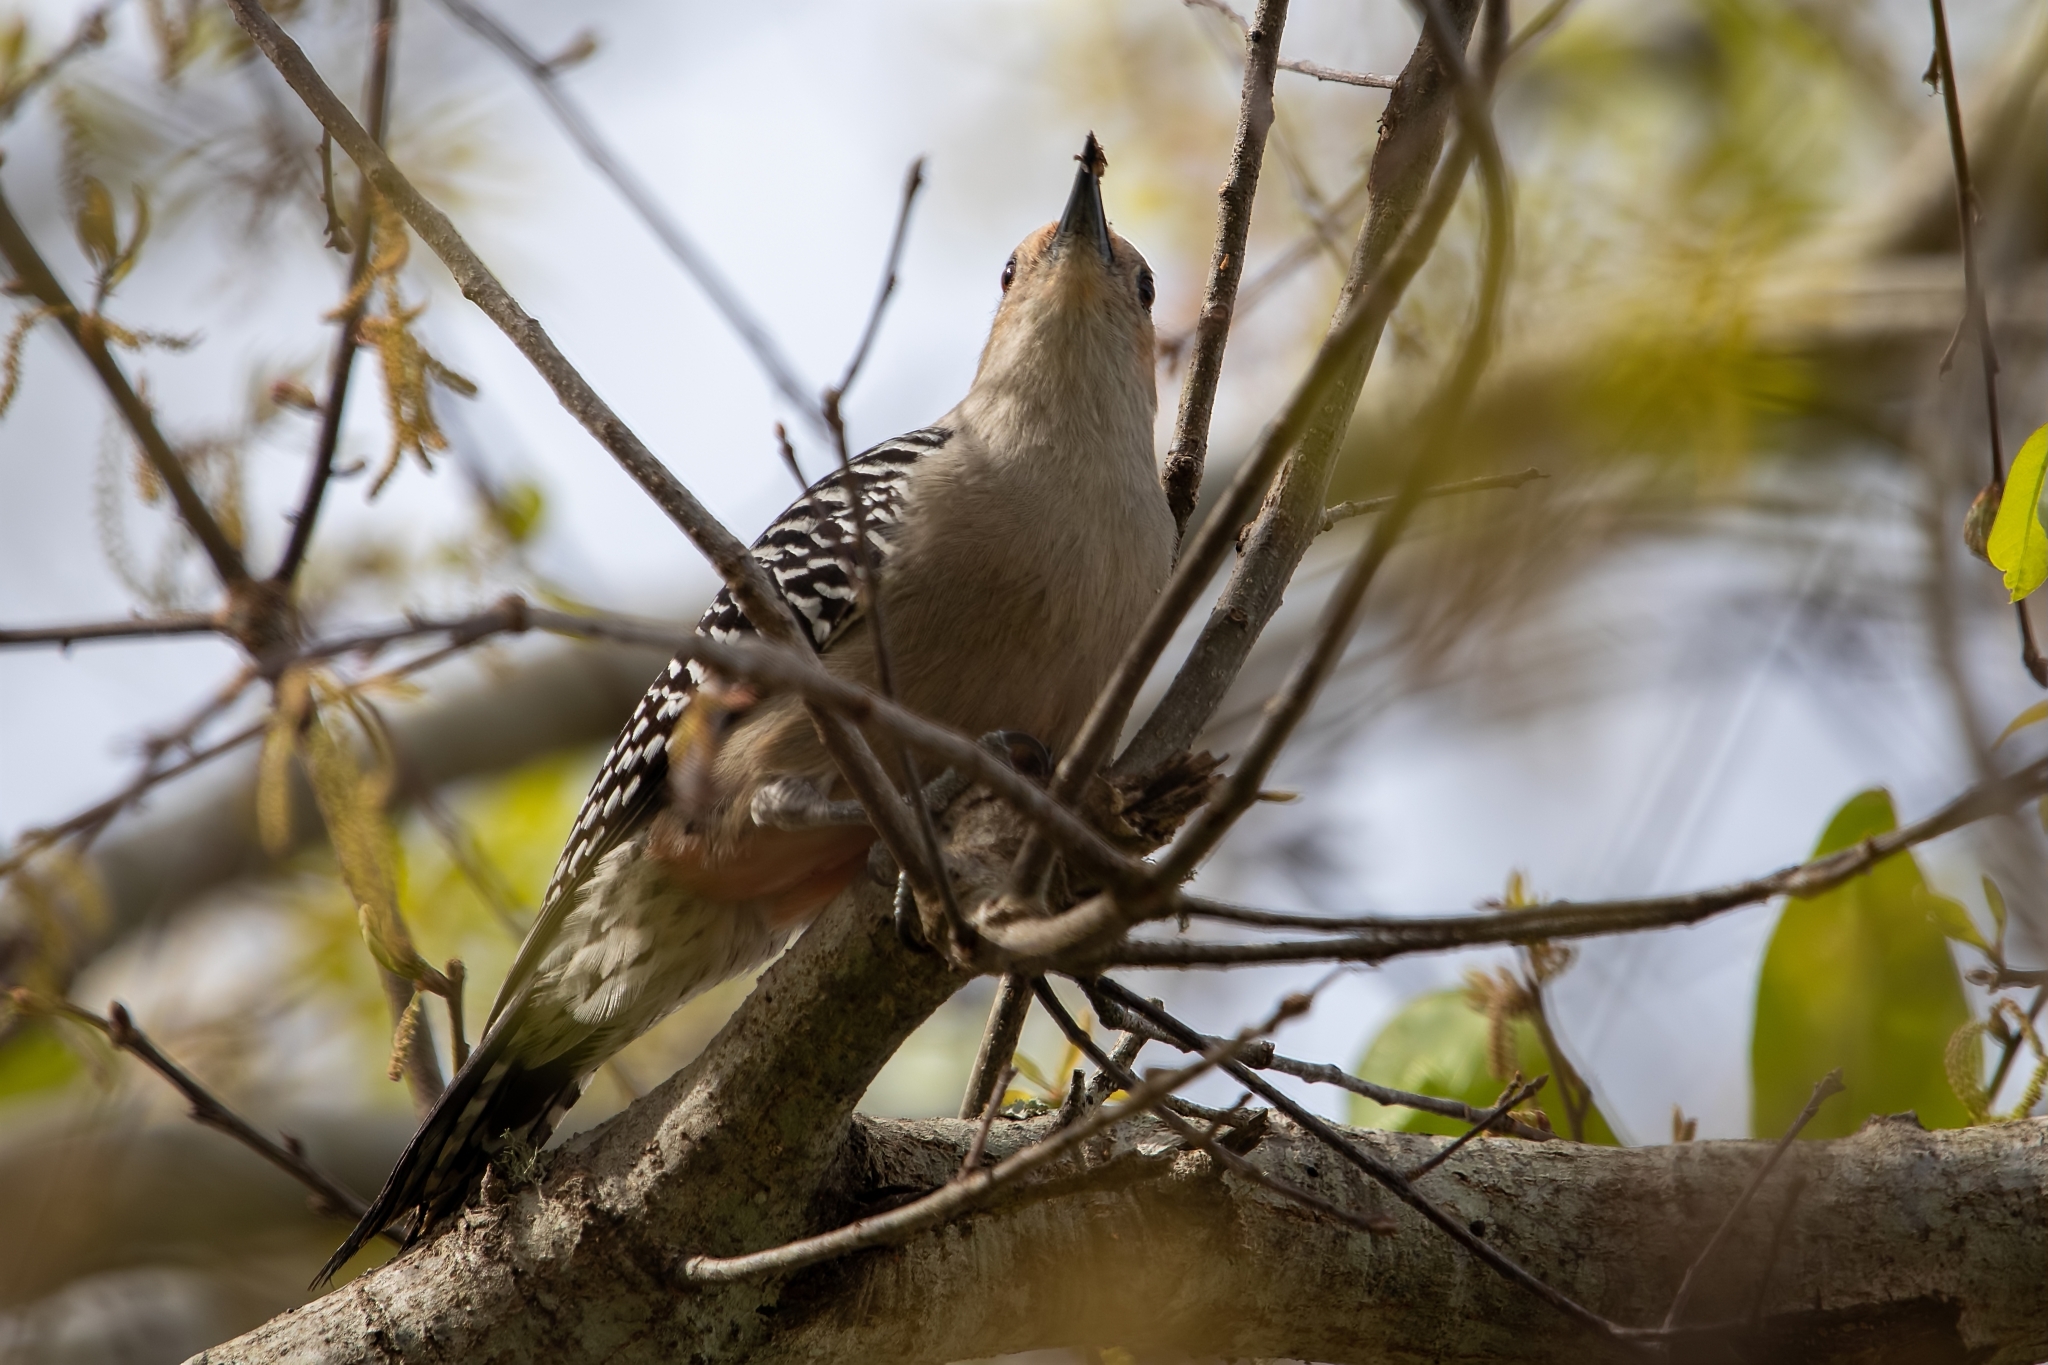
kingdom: Animalia
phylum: Chordata
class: Aves
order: Piciformes
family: Picidae
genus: Melanerpes
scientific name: Melanerpes carolinus
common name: Red-bellied woodpecker
